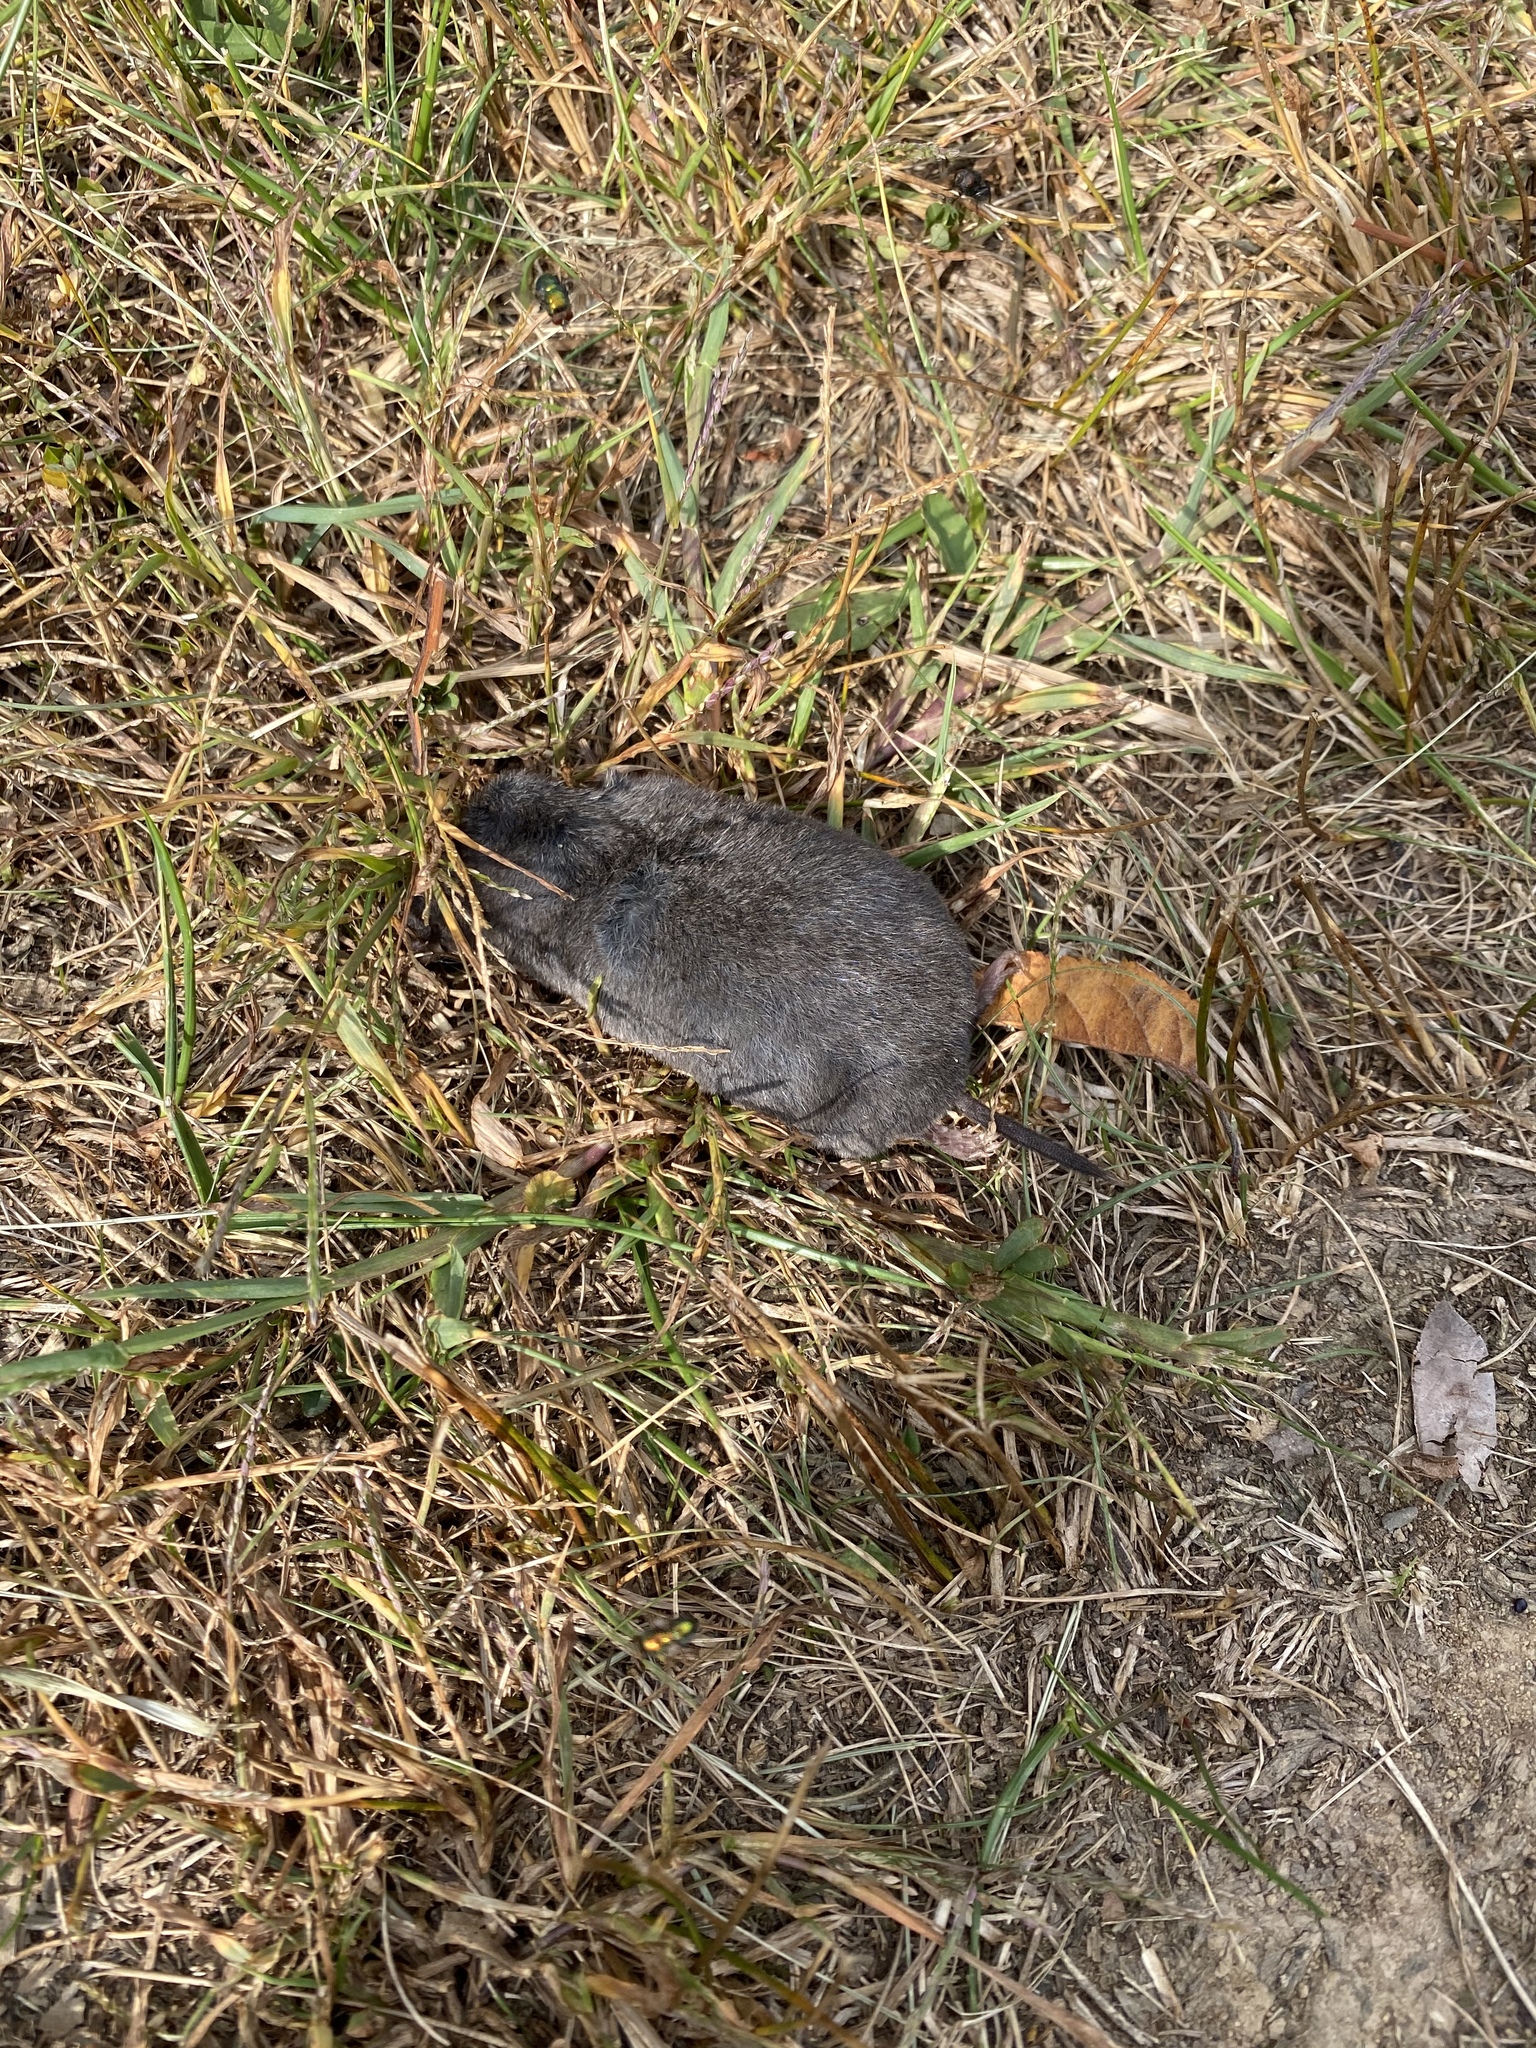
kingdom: Animalia
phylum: Chordata
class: Mammalia
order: Rodentia
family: Cricetidae
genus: Microtus
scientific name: Microtus pinetorum
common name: Woodland vole
